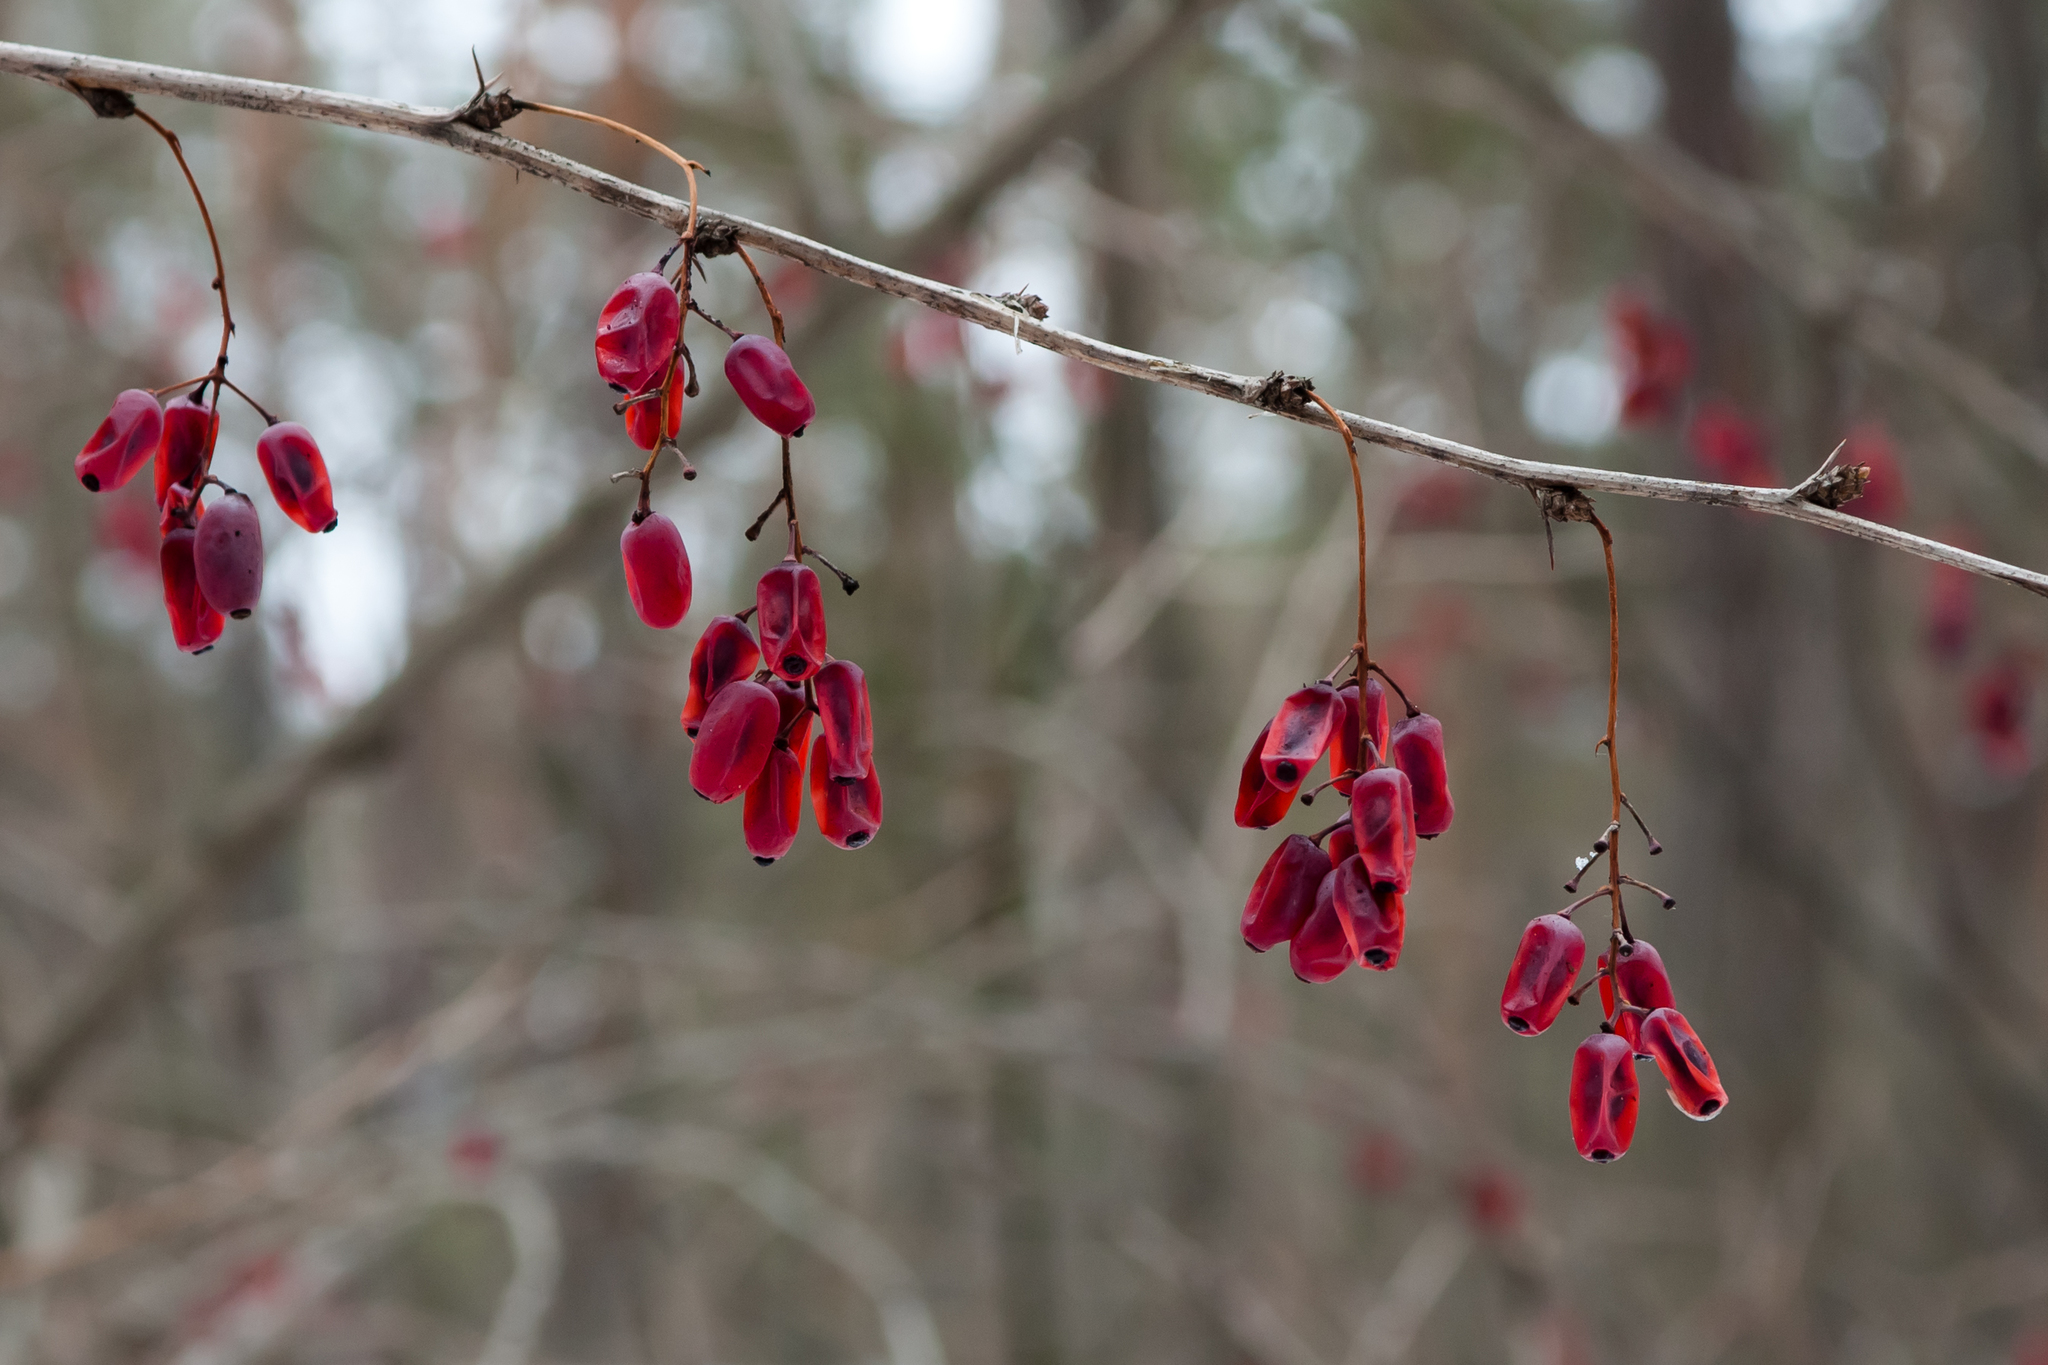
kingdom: Plantae
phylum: Tracheophyta
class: Magnoliopsida
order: Ranunculales
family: Berberidaceae
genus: Berberis
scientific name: Berberis vulgaris
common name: Barberry
